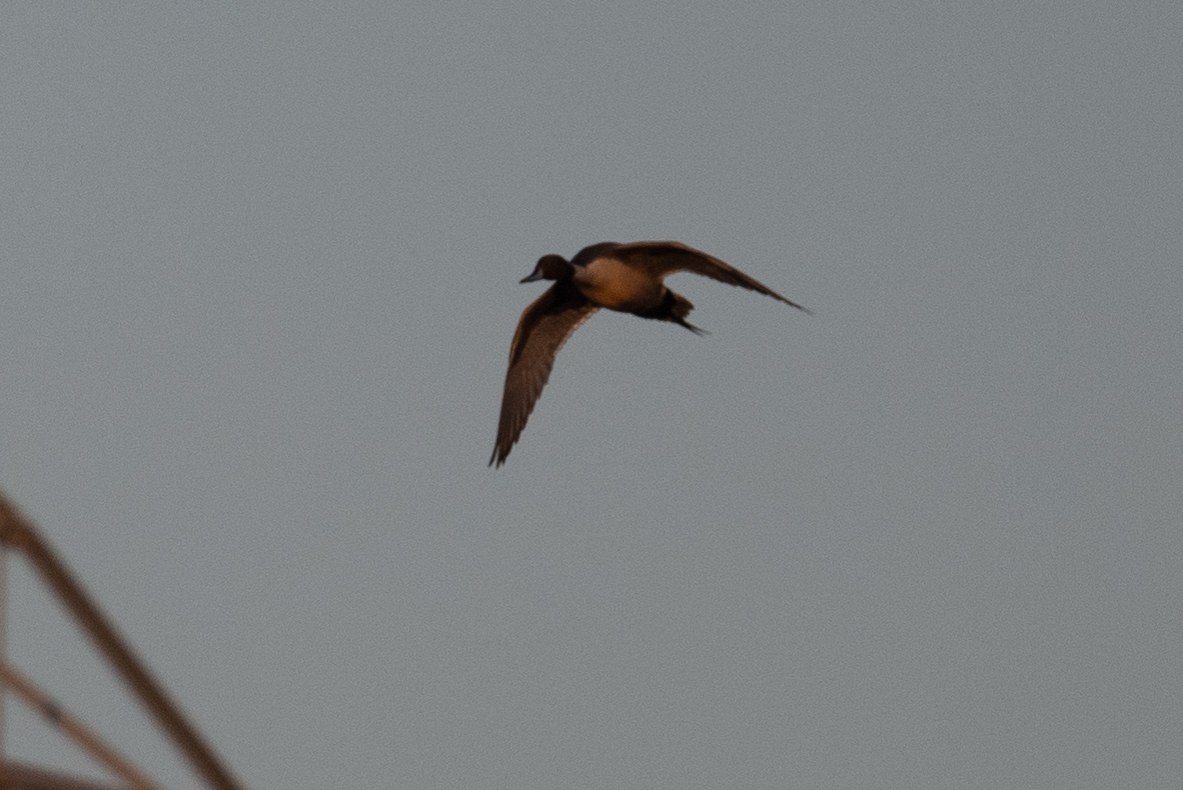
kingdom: Animalia
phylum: Chordata
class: Aves
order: Anseriformes
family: Anatidae
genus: Anas
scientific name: Anas acuta
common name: Northern pintail
